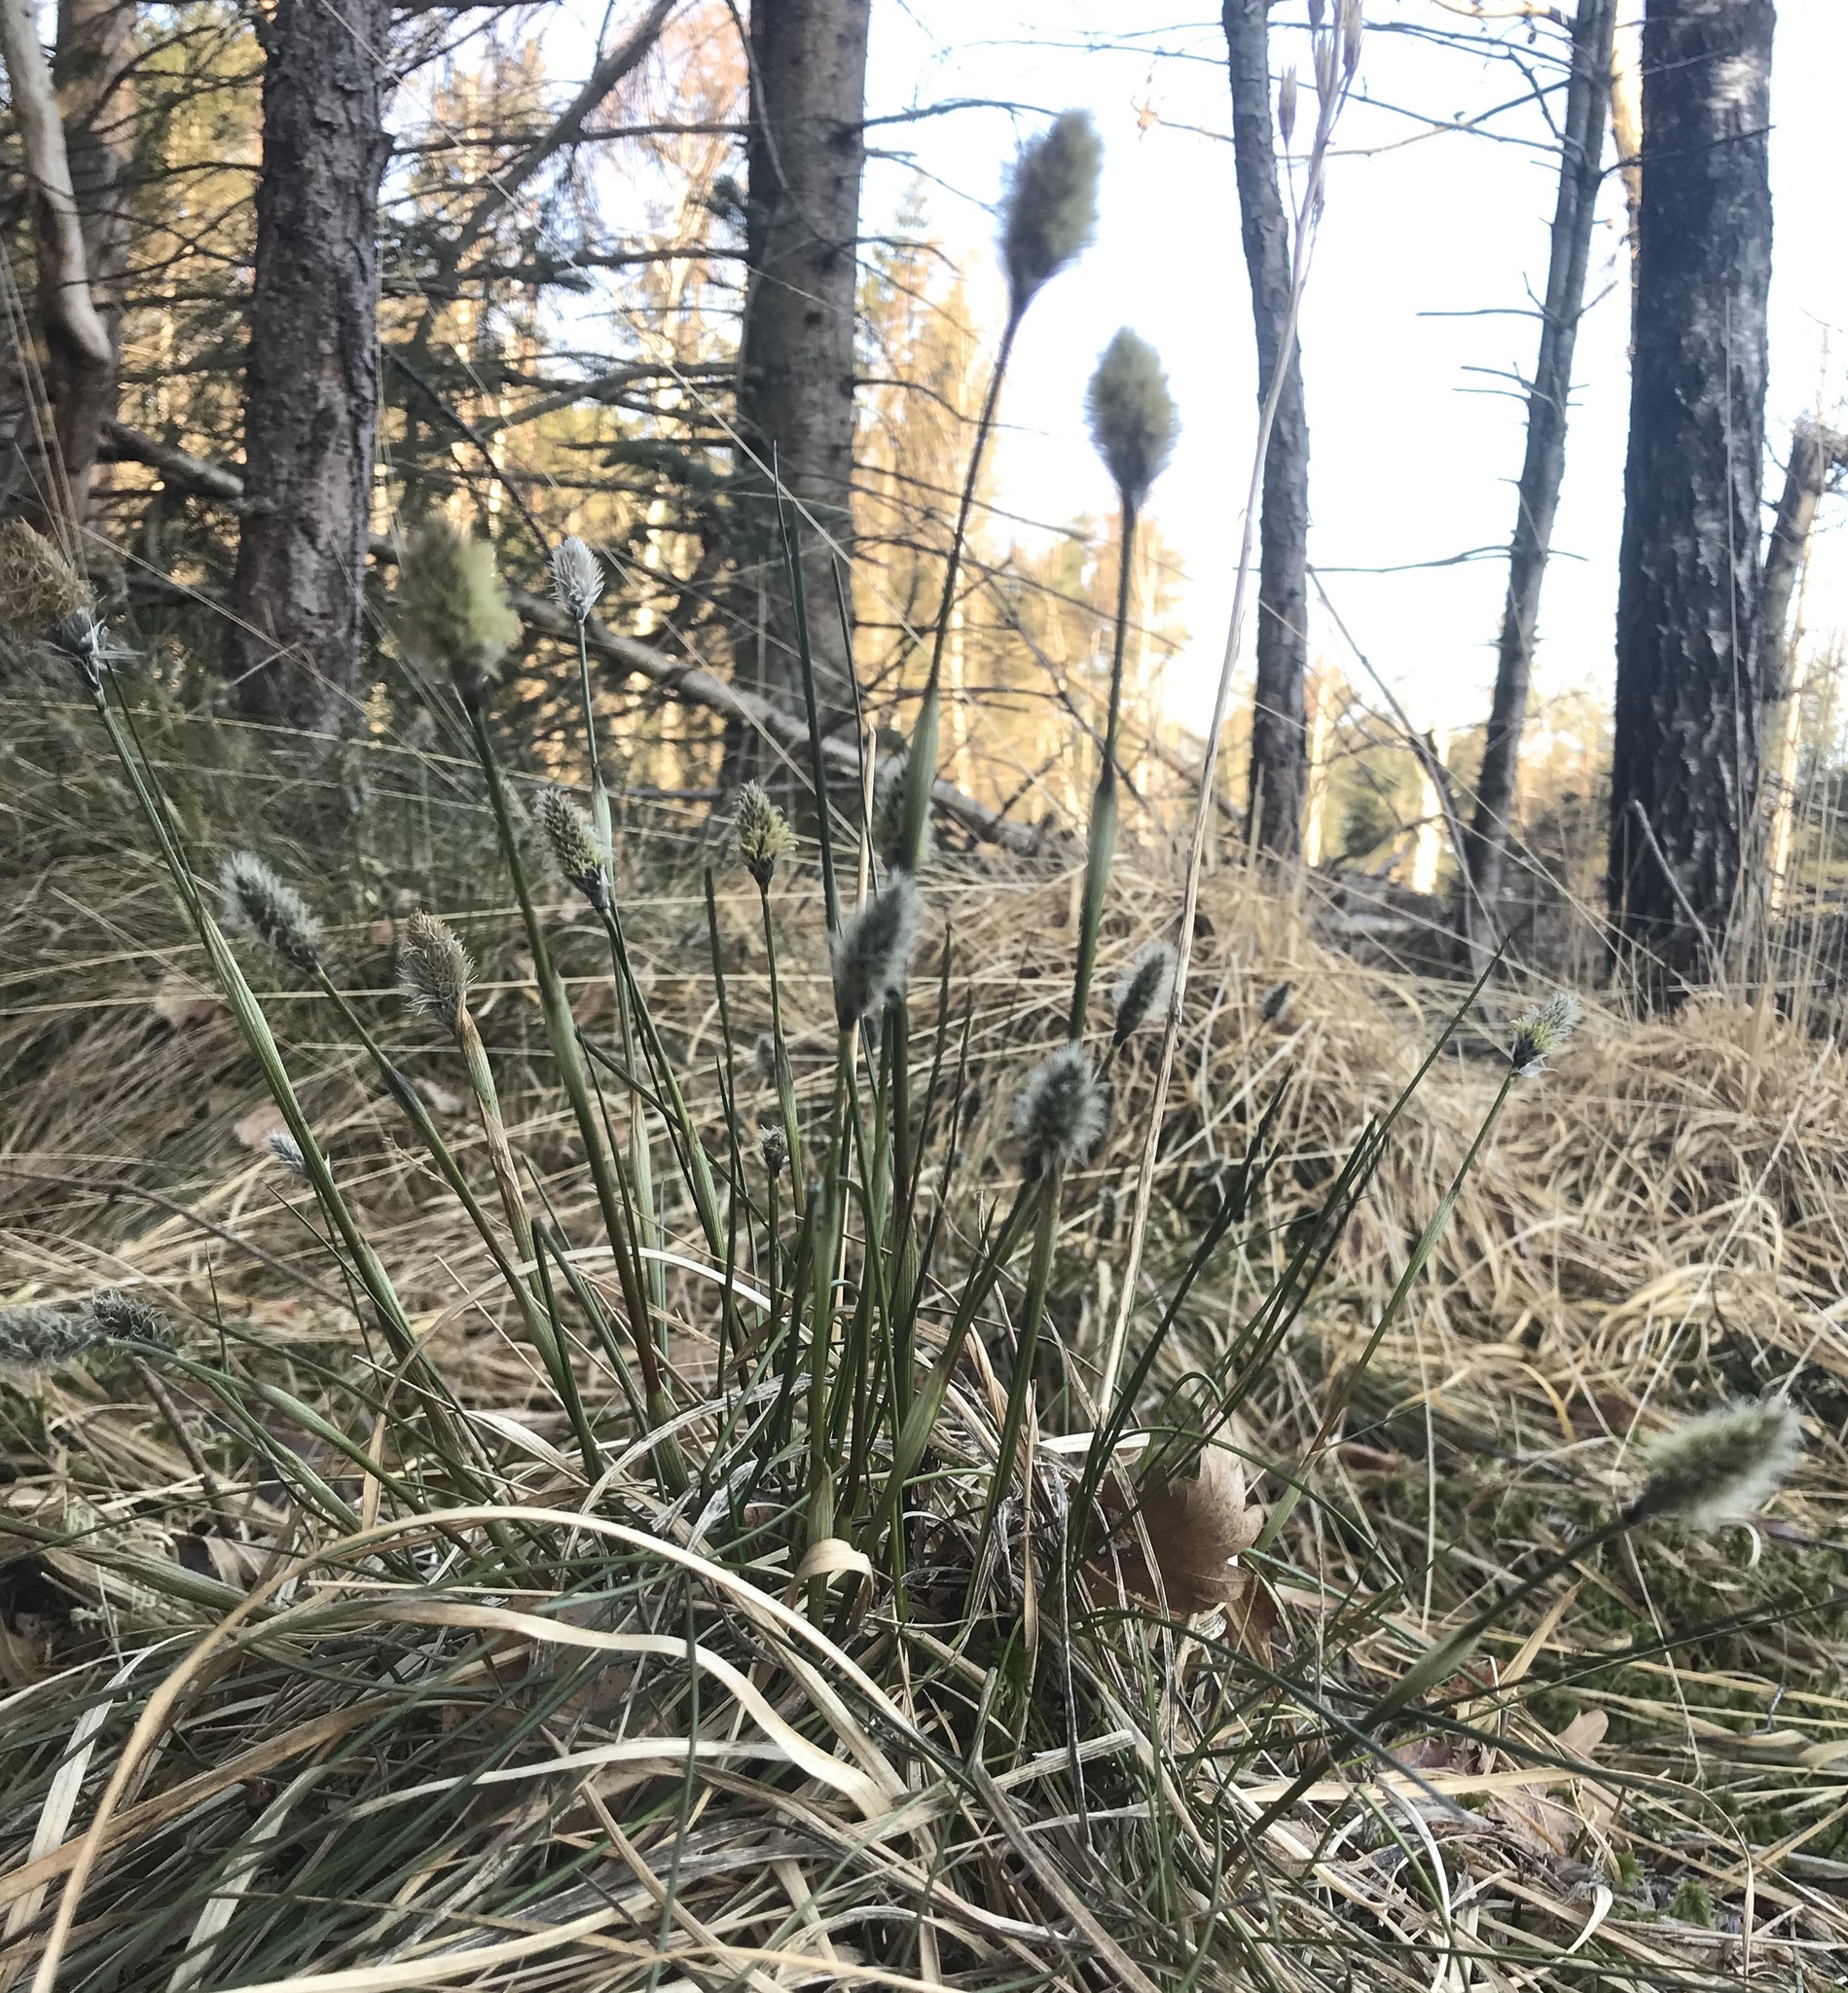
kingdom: Plantae
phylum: Tracheophyta
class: Liliopsida
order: Poales
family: Cyperaceae
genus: Eriophorum
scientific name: Eriophorum vaginatum
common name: Hare's-tail cottongrass
